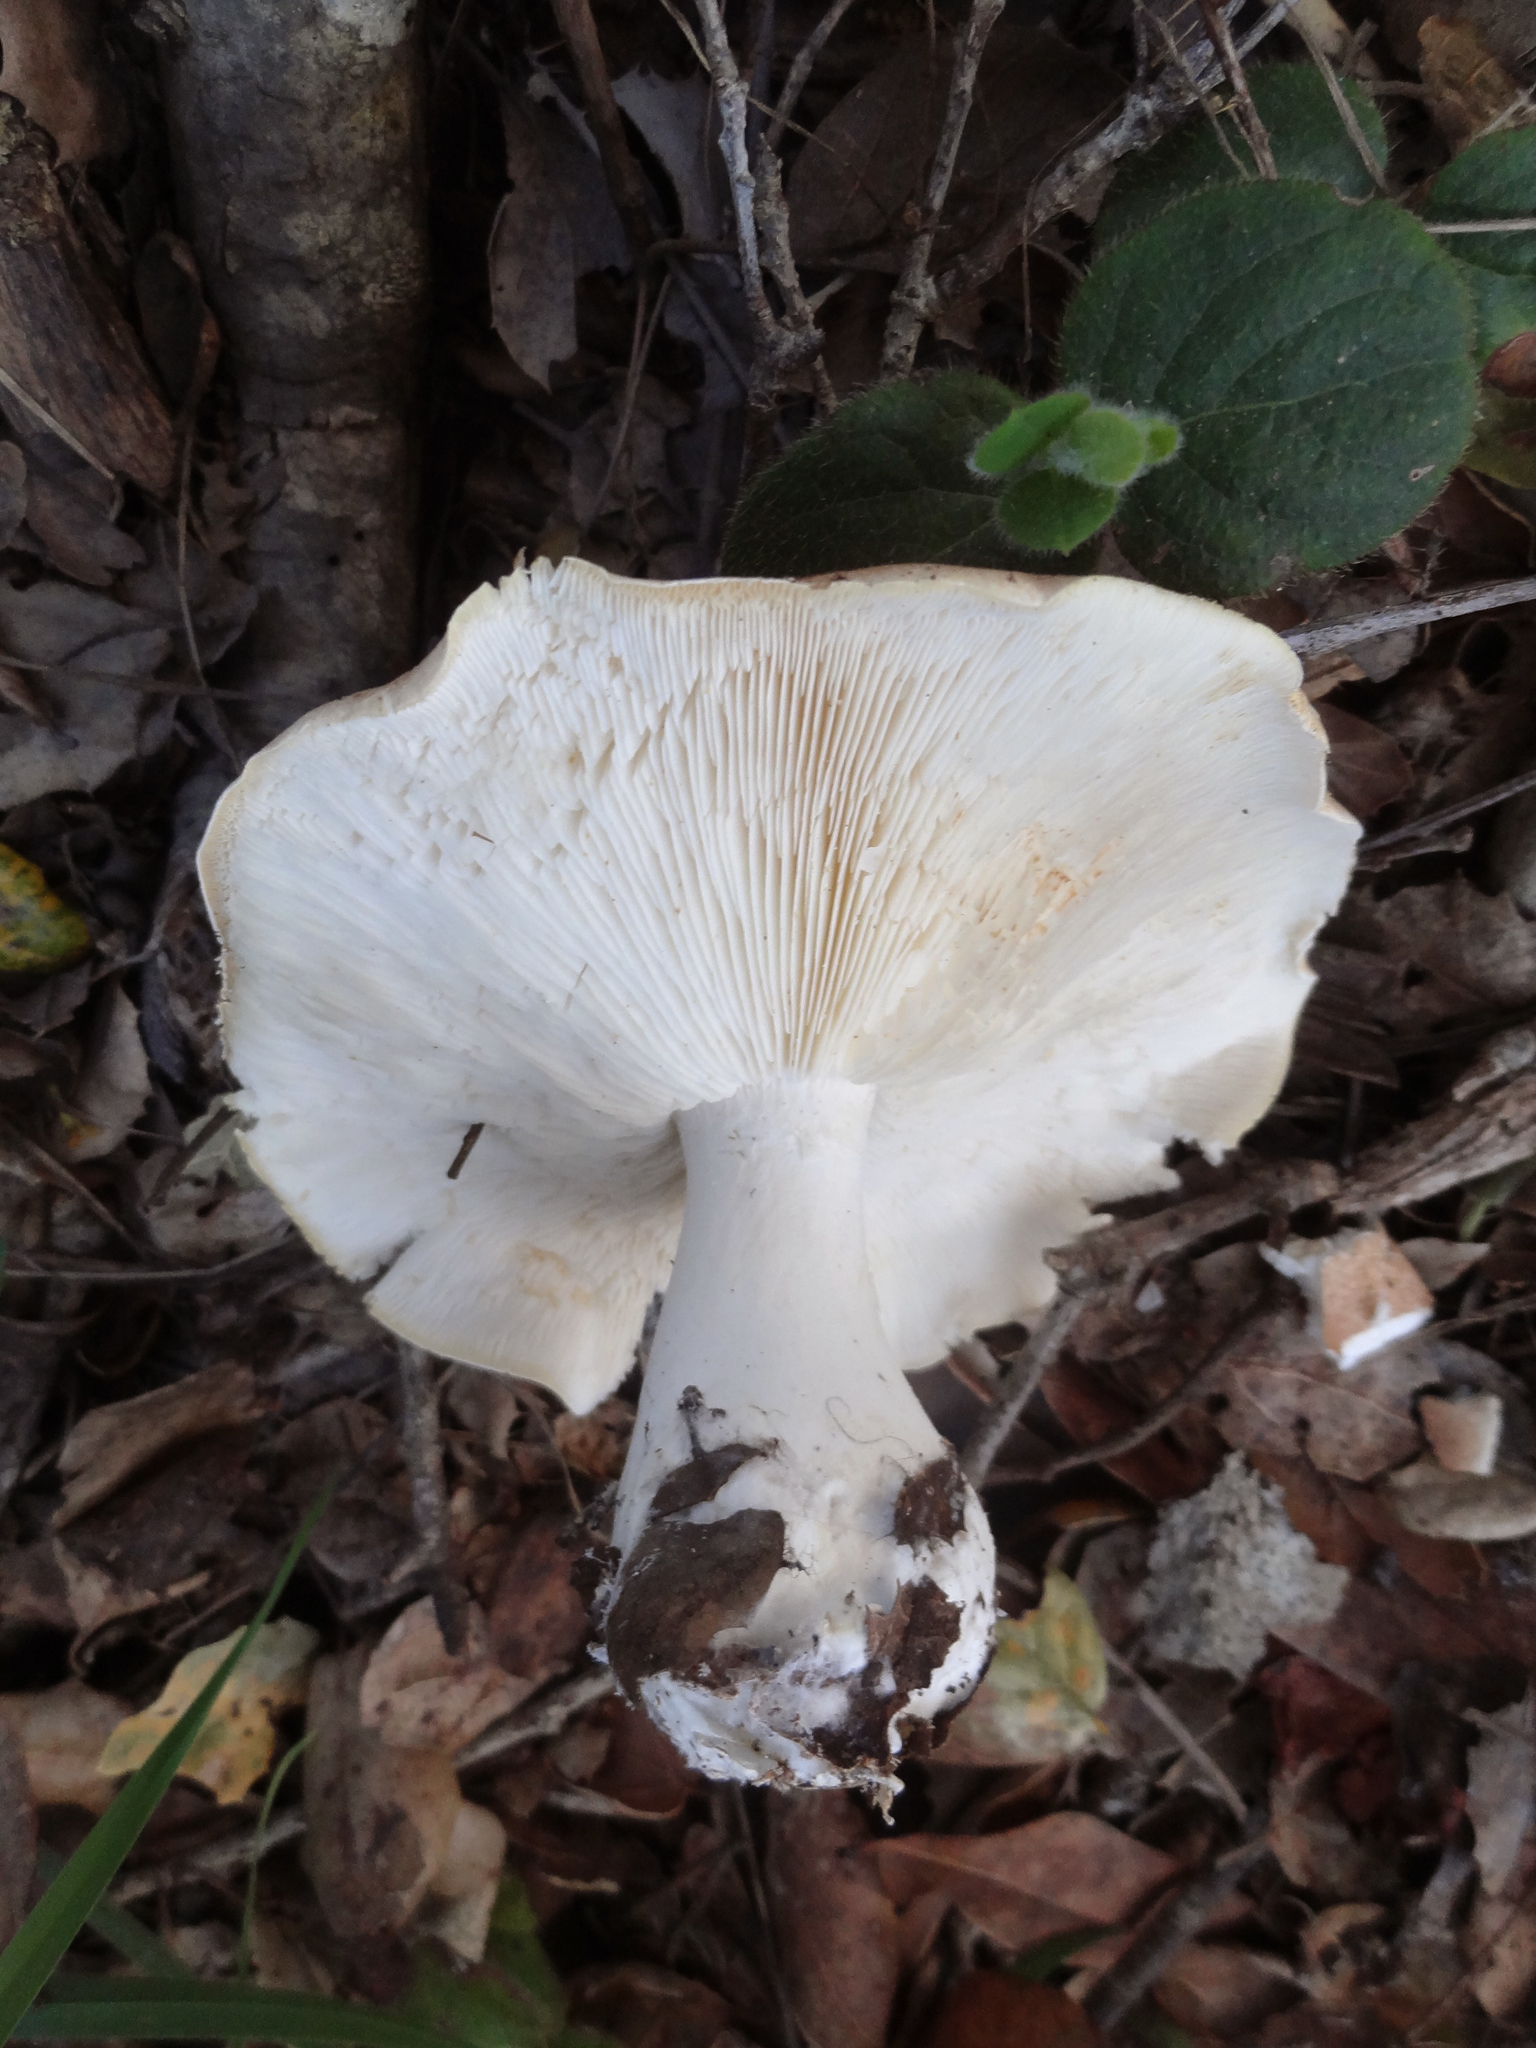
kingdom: Fungi
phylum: Basidiomycota
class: Agaricomycetes
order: Agaricales
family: Tricholomataceae
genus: Leucopaxillus
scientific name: Leucopaxillus gentianeus
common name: Bitter funnel
